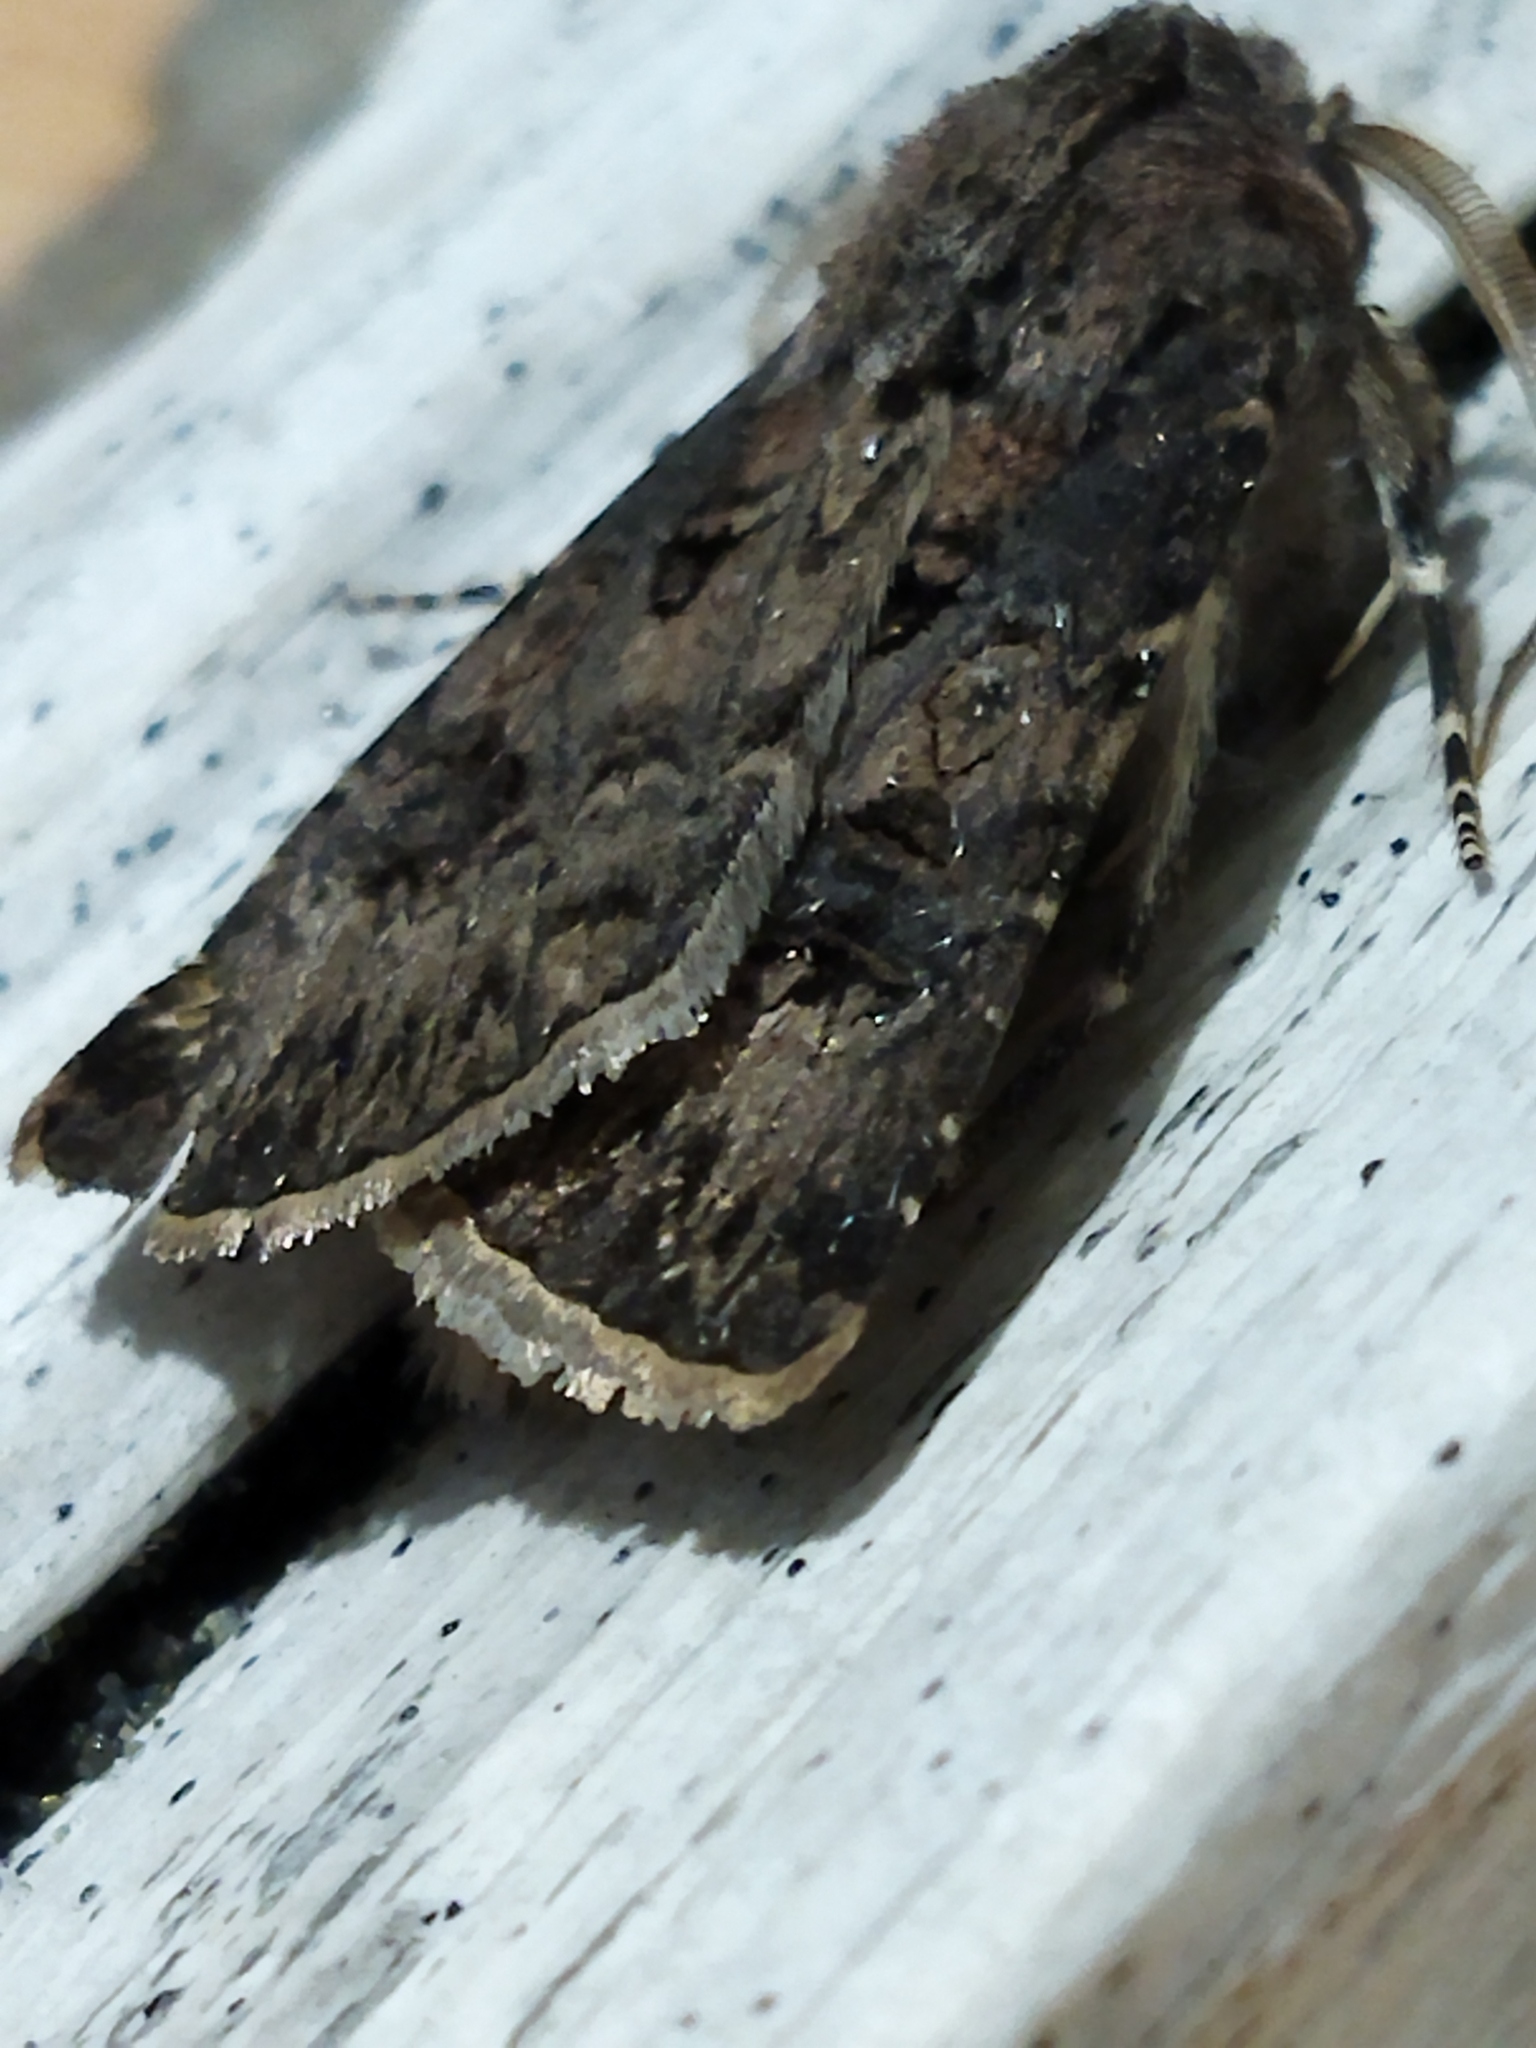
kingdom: Animalia
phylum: Arthropoda
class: Insecta
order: Lepidoptera
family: Noctuidae
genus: Agrotis
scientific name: Agrotis bigramma
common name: Great dart
